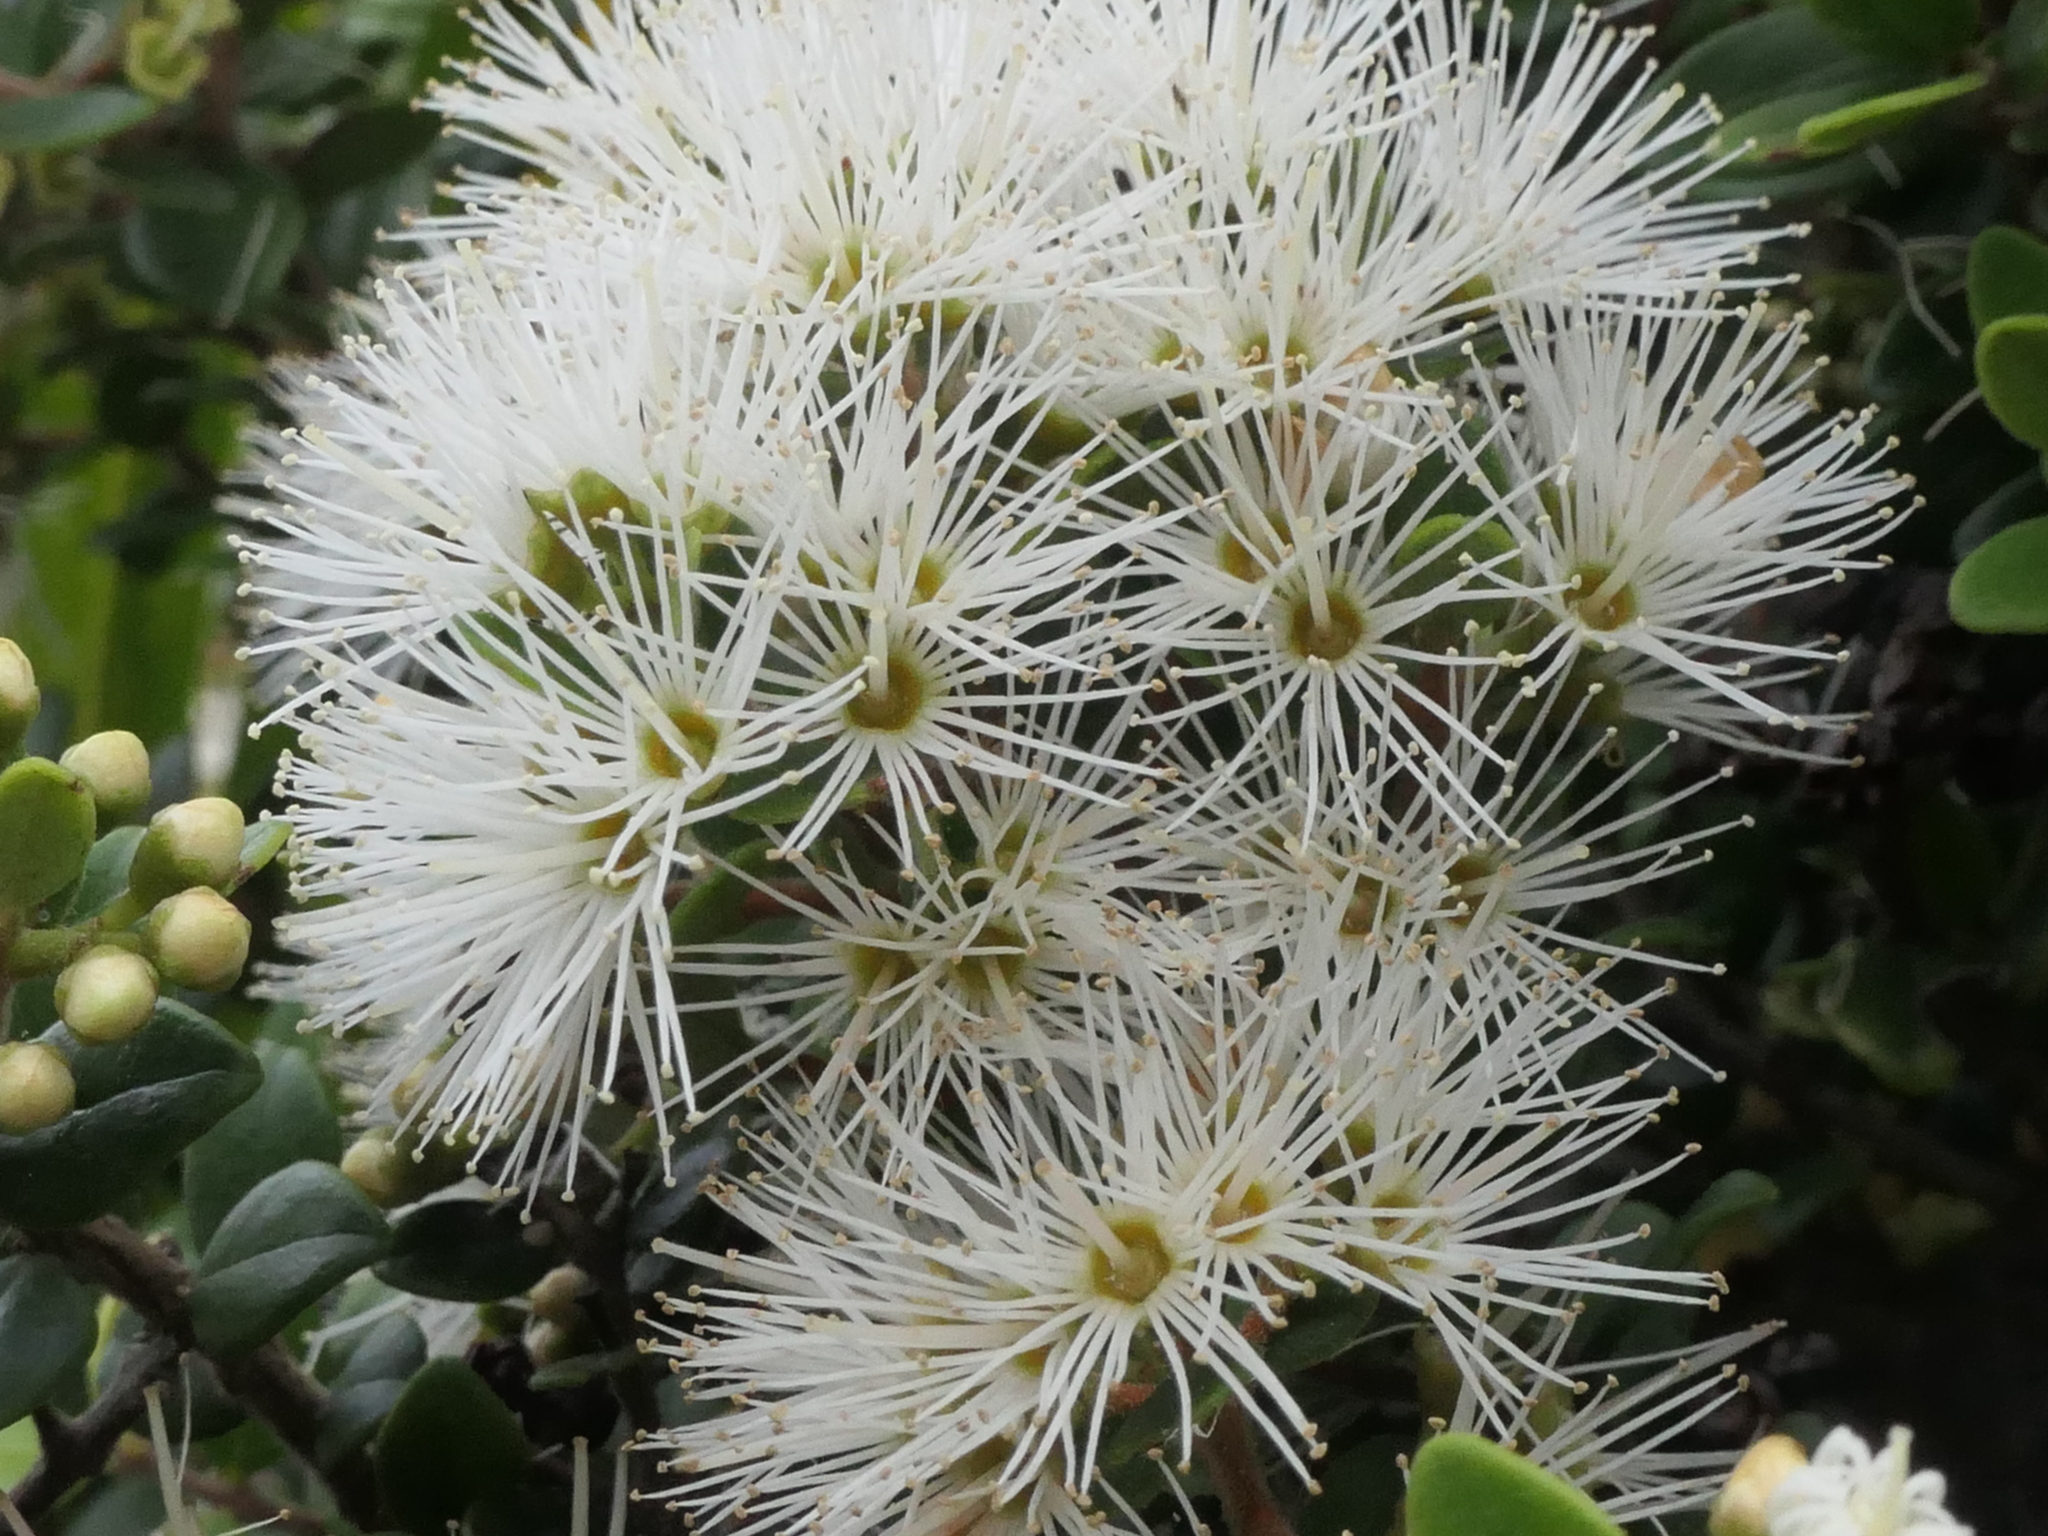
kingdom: Plantae
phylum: Tracheophyta
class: Magnoliopsida
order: Myrtales
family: Myrtaceae
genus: Metrosideros
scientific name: Metrosideros perforata
